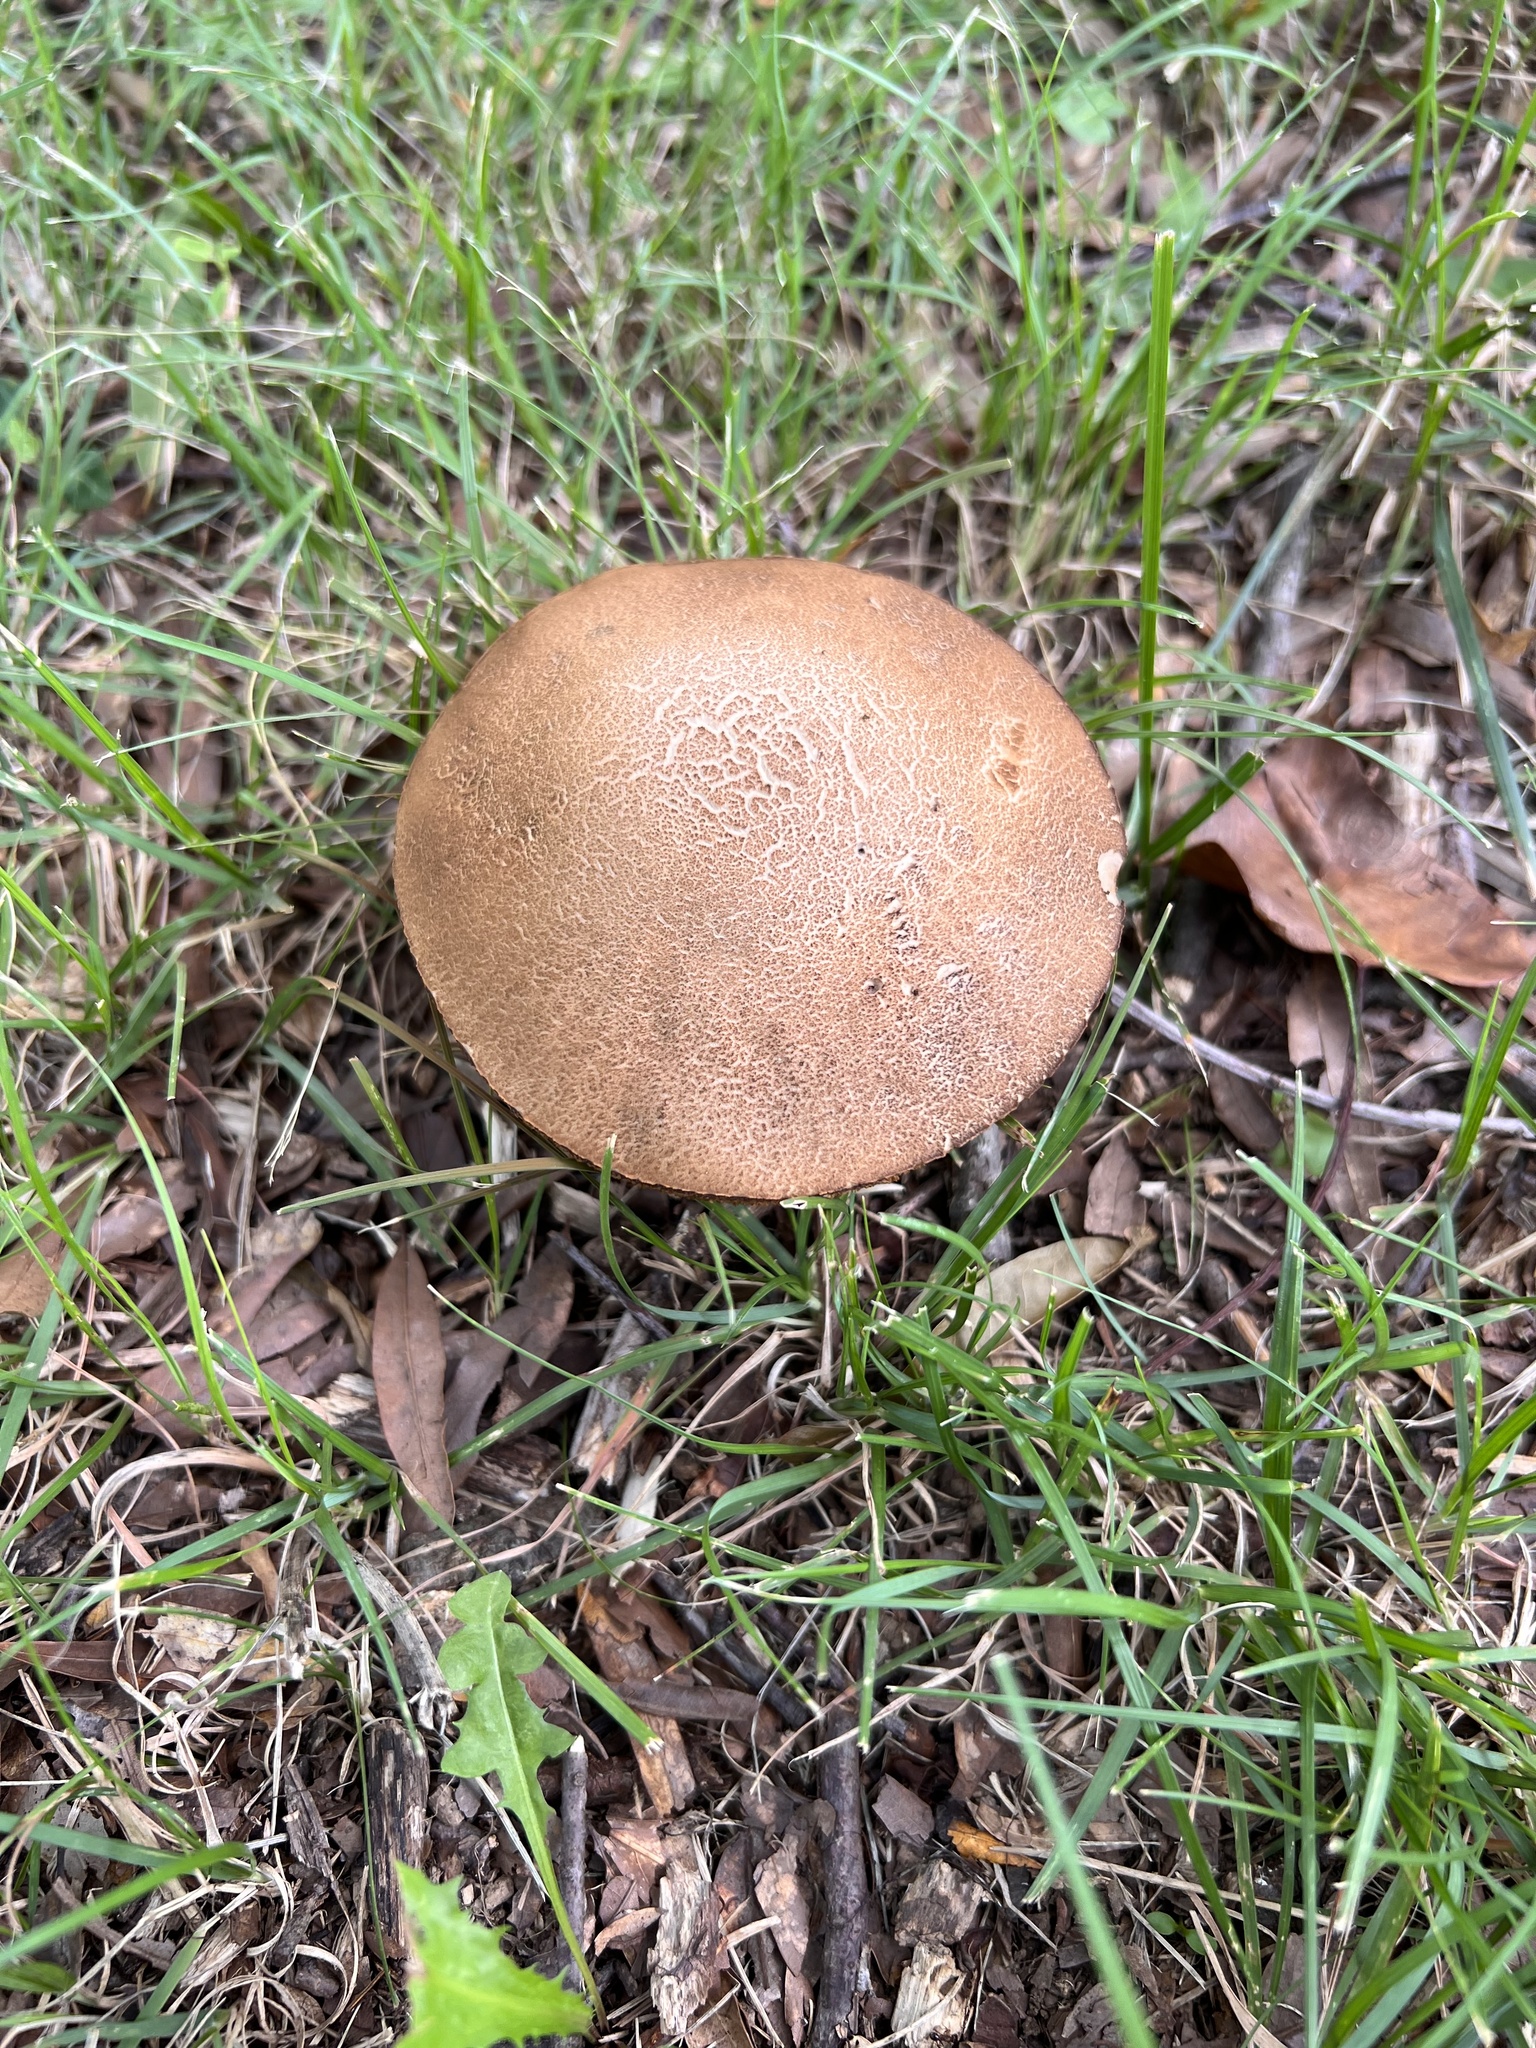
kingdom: Fungi
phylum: Basidiomycota
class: Agaricomycetes
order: Boletales
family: Boletaceae
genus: Leccinellum
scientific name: Leccinellum rugosiceps
